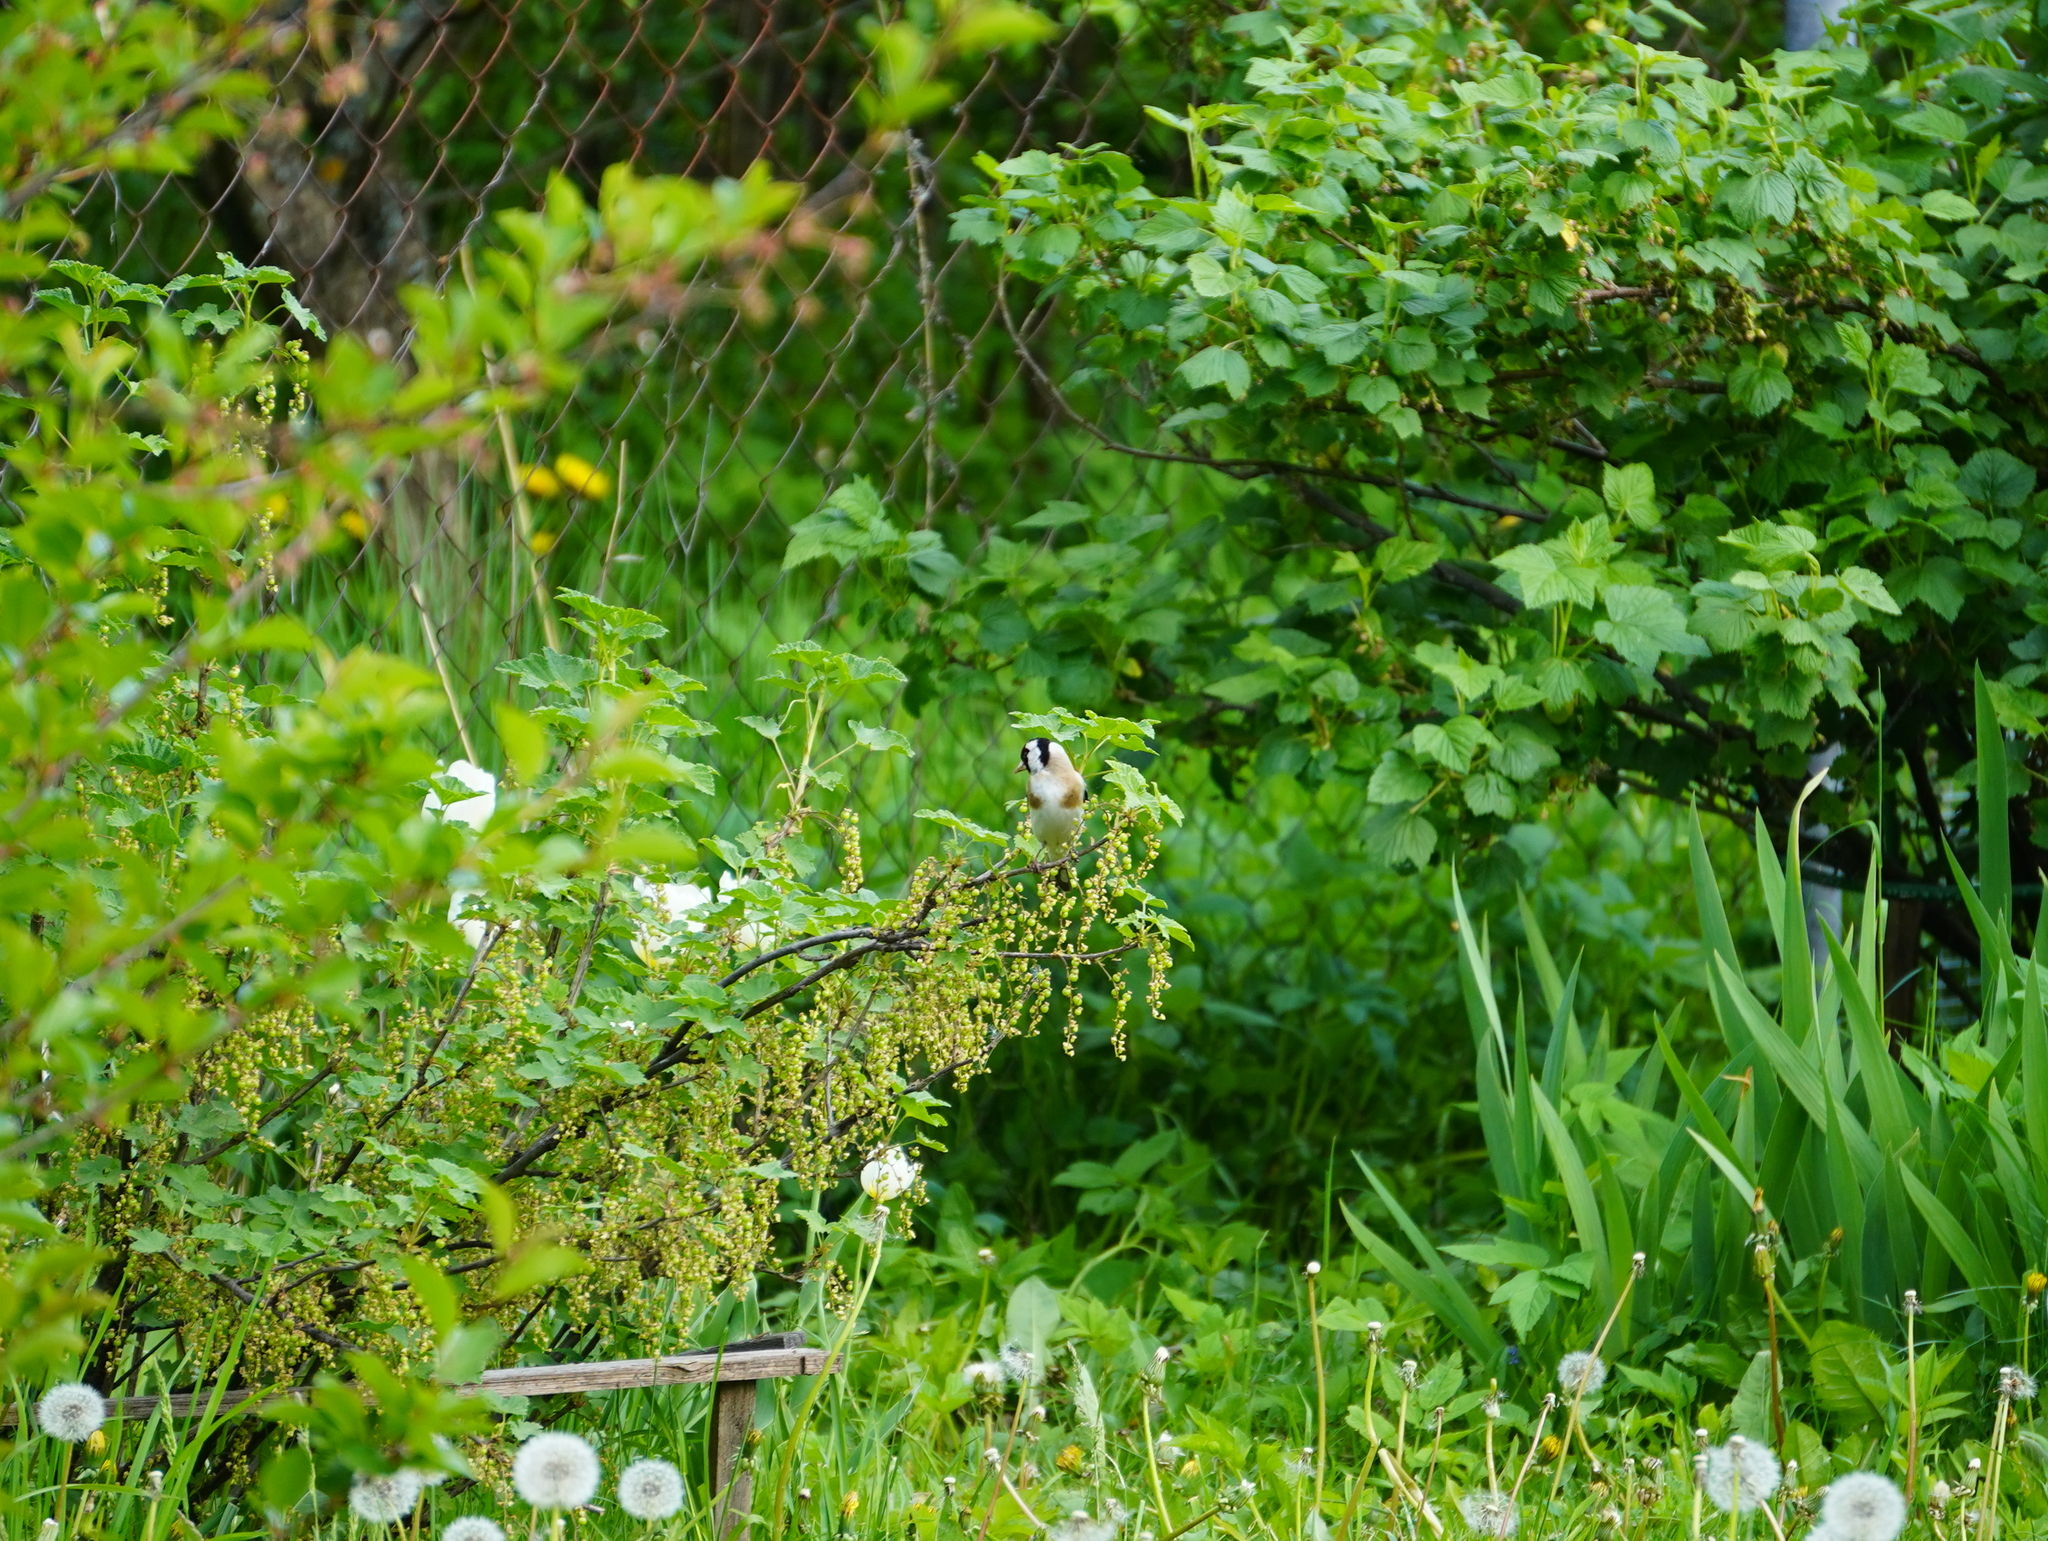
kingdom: Animalia
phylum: Chordata
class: Aves
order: Passeriformes
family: Fringillidae
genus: Carduelis
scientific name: Carduelis carduelis
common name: European goldfinch
